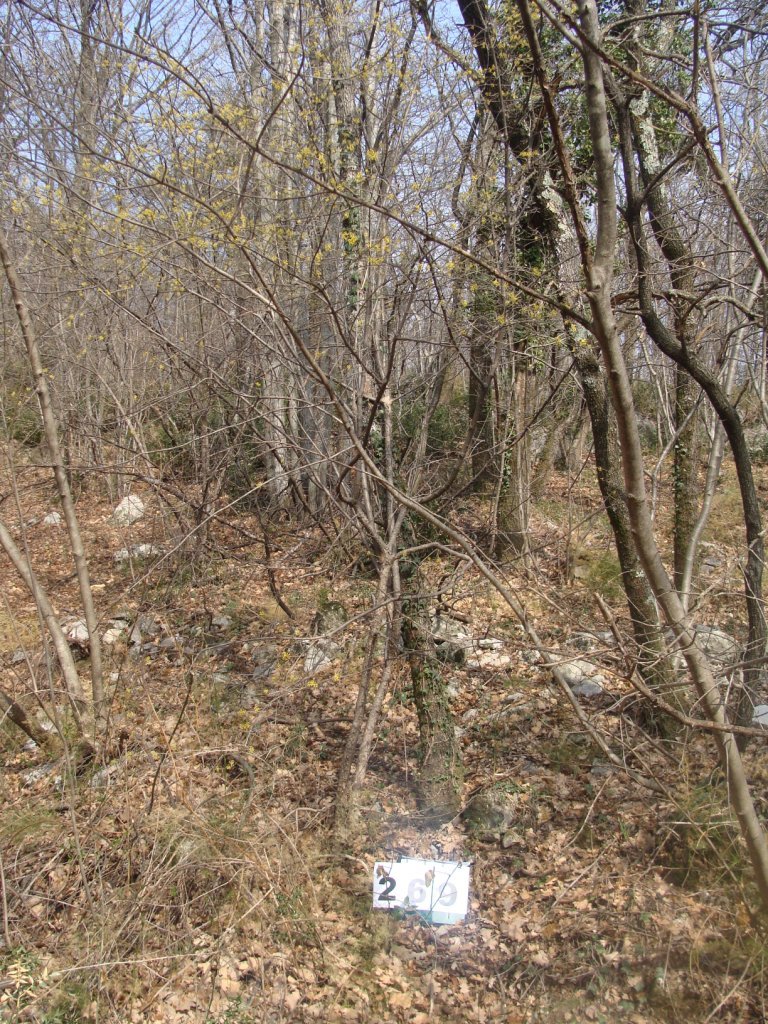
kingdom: Plantae
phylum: Tracheophyta
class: Magnoliopsida
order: Cornales
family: Cornaceae
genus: Cornus
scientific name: Cornus mas
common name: Cornelian-cherry
